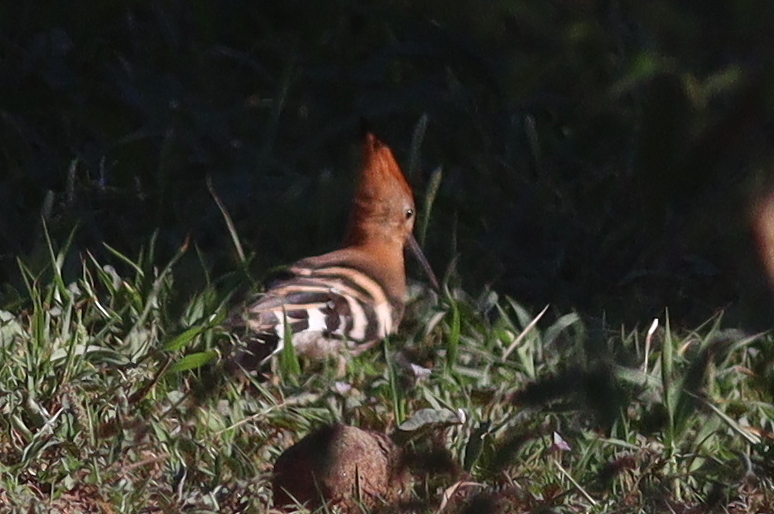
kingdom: Animalia
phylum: Chordata
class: Aves
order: Bucerotiformes
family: Upupidae
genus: Upupa
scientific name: Upupa africana
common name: African hoopoe
